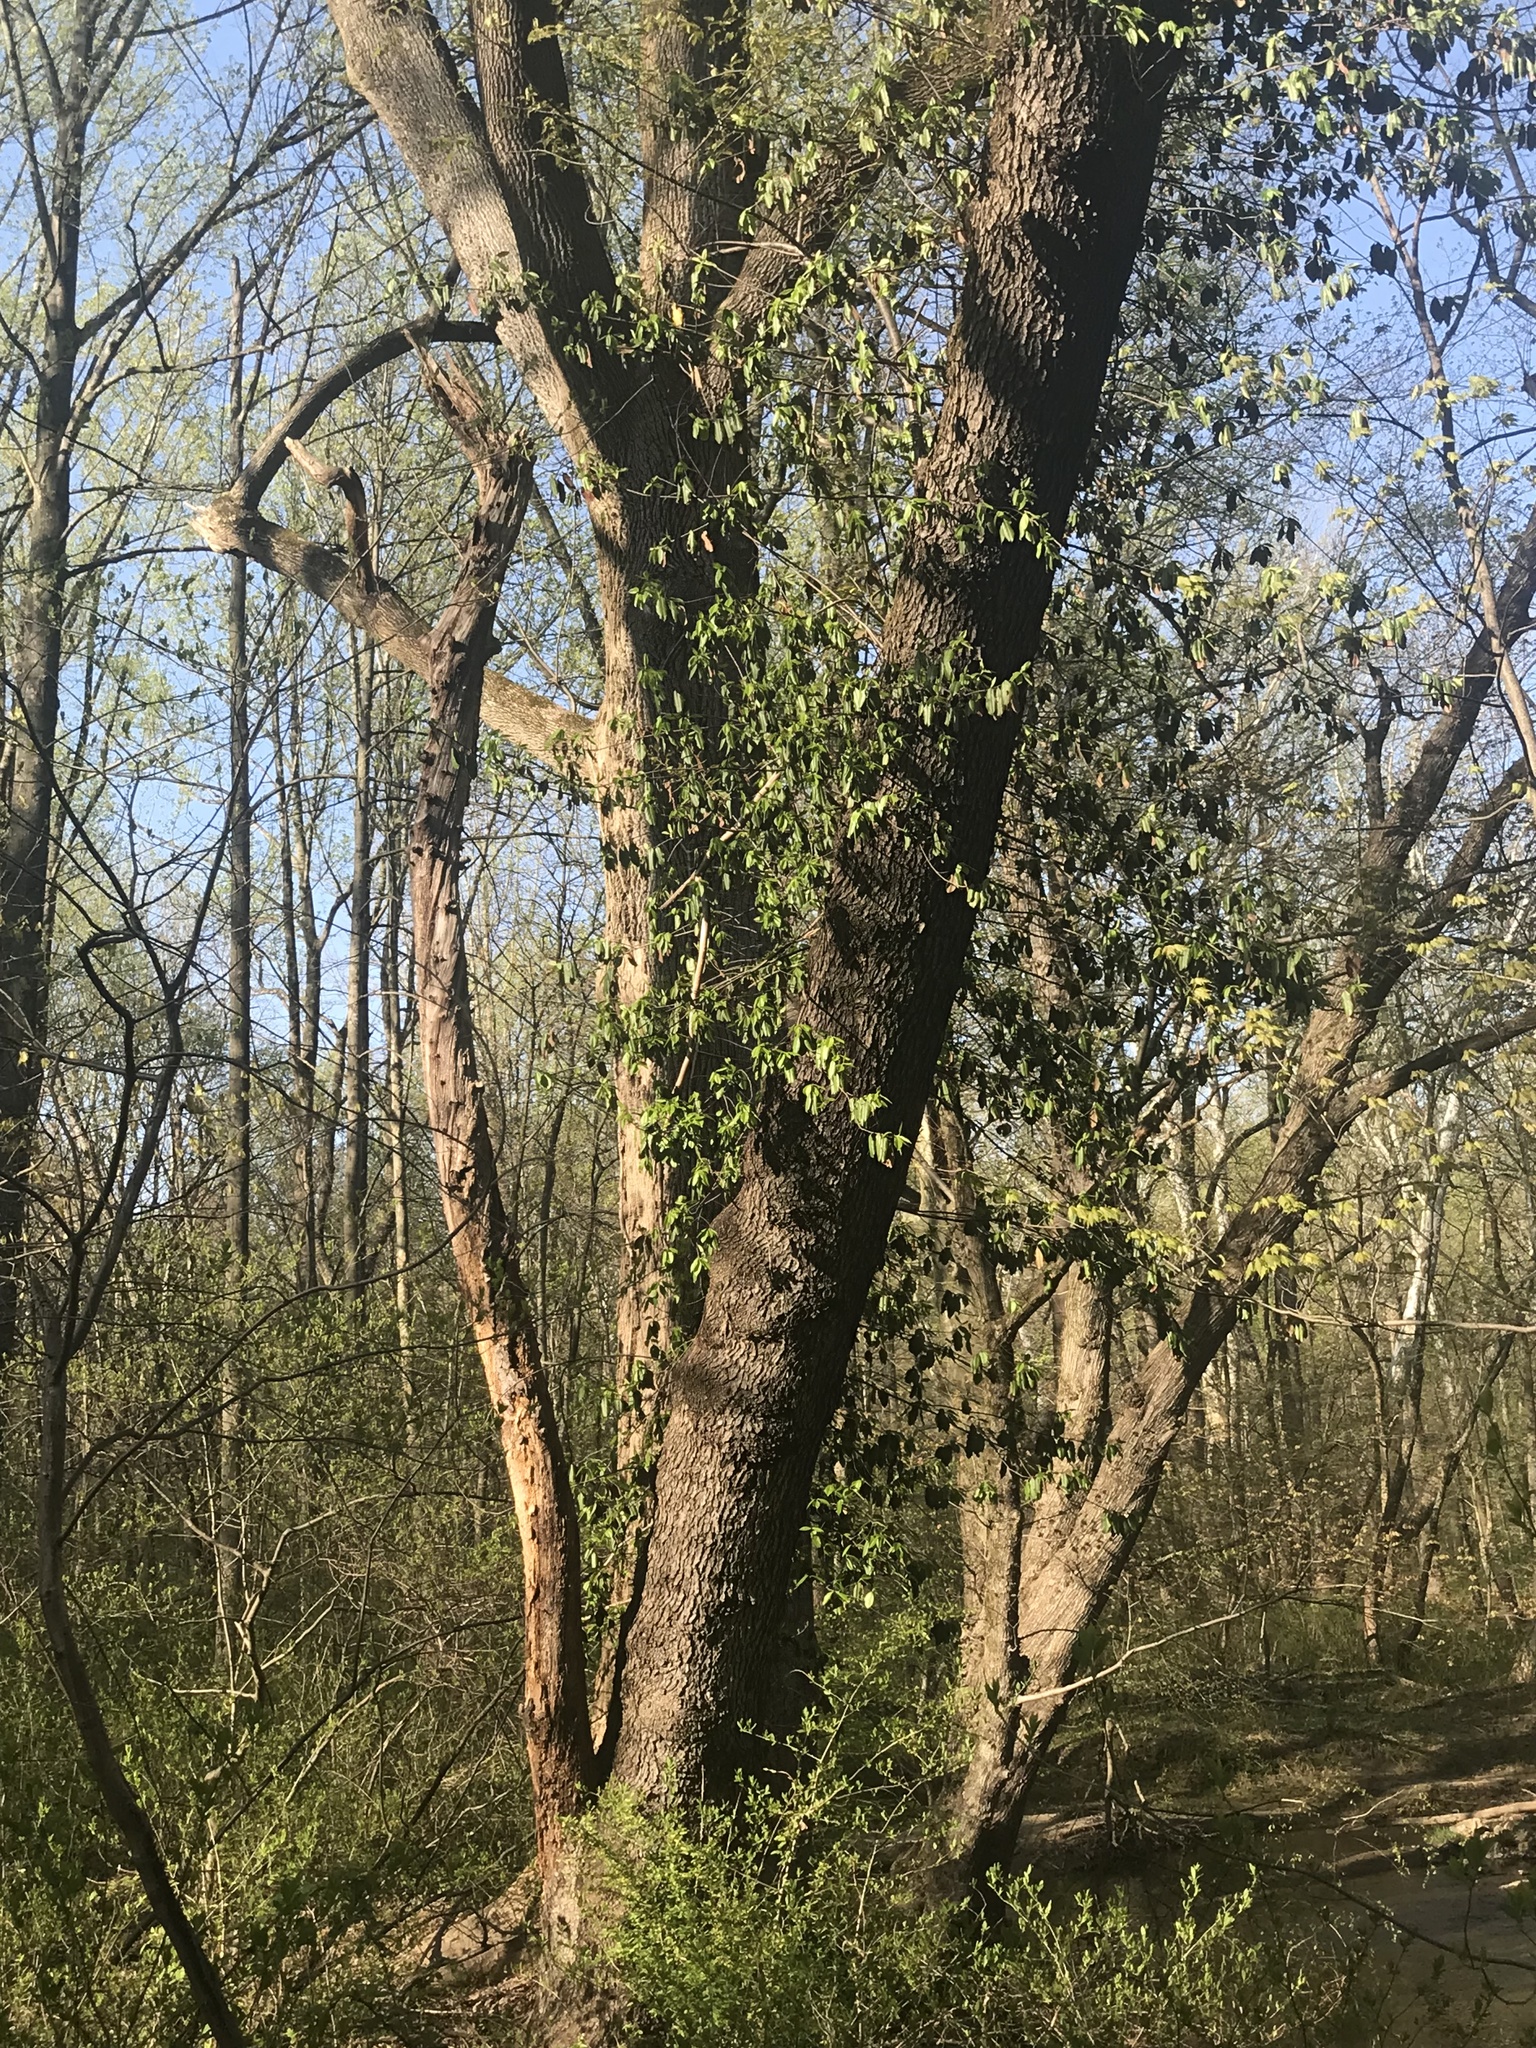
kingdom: Plantae
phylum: Tracheophyta
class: Magnoliopsida
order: Rosales
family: Rosaceae
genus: Prunus
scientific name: Prunus serotina
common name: Black cherry
